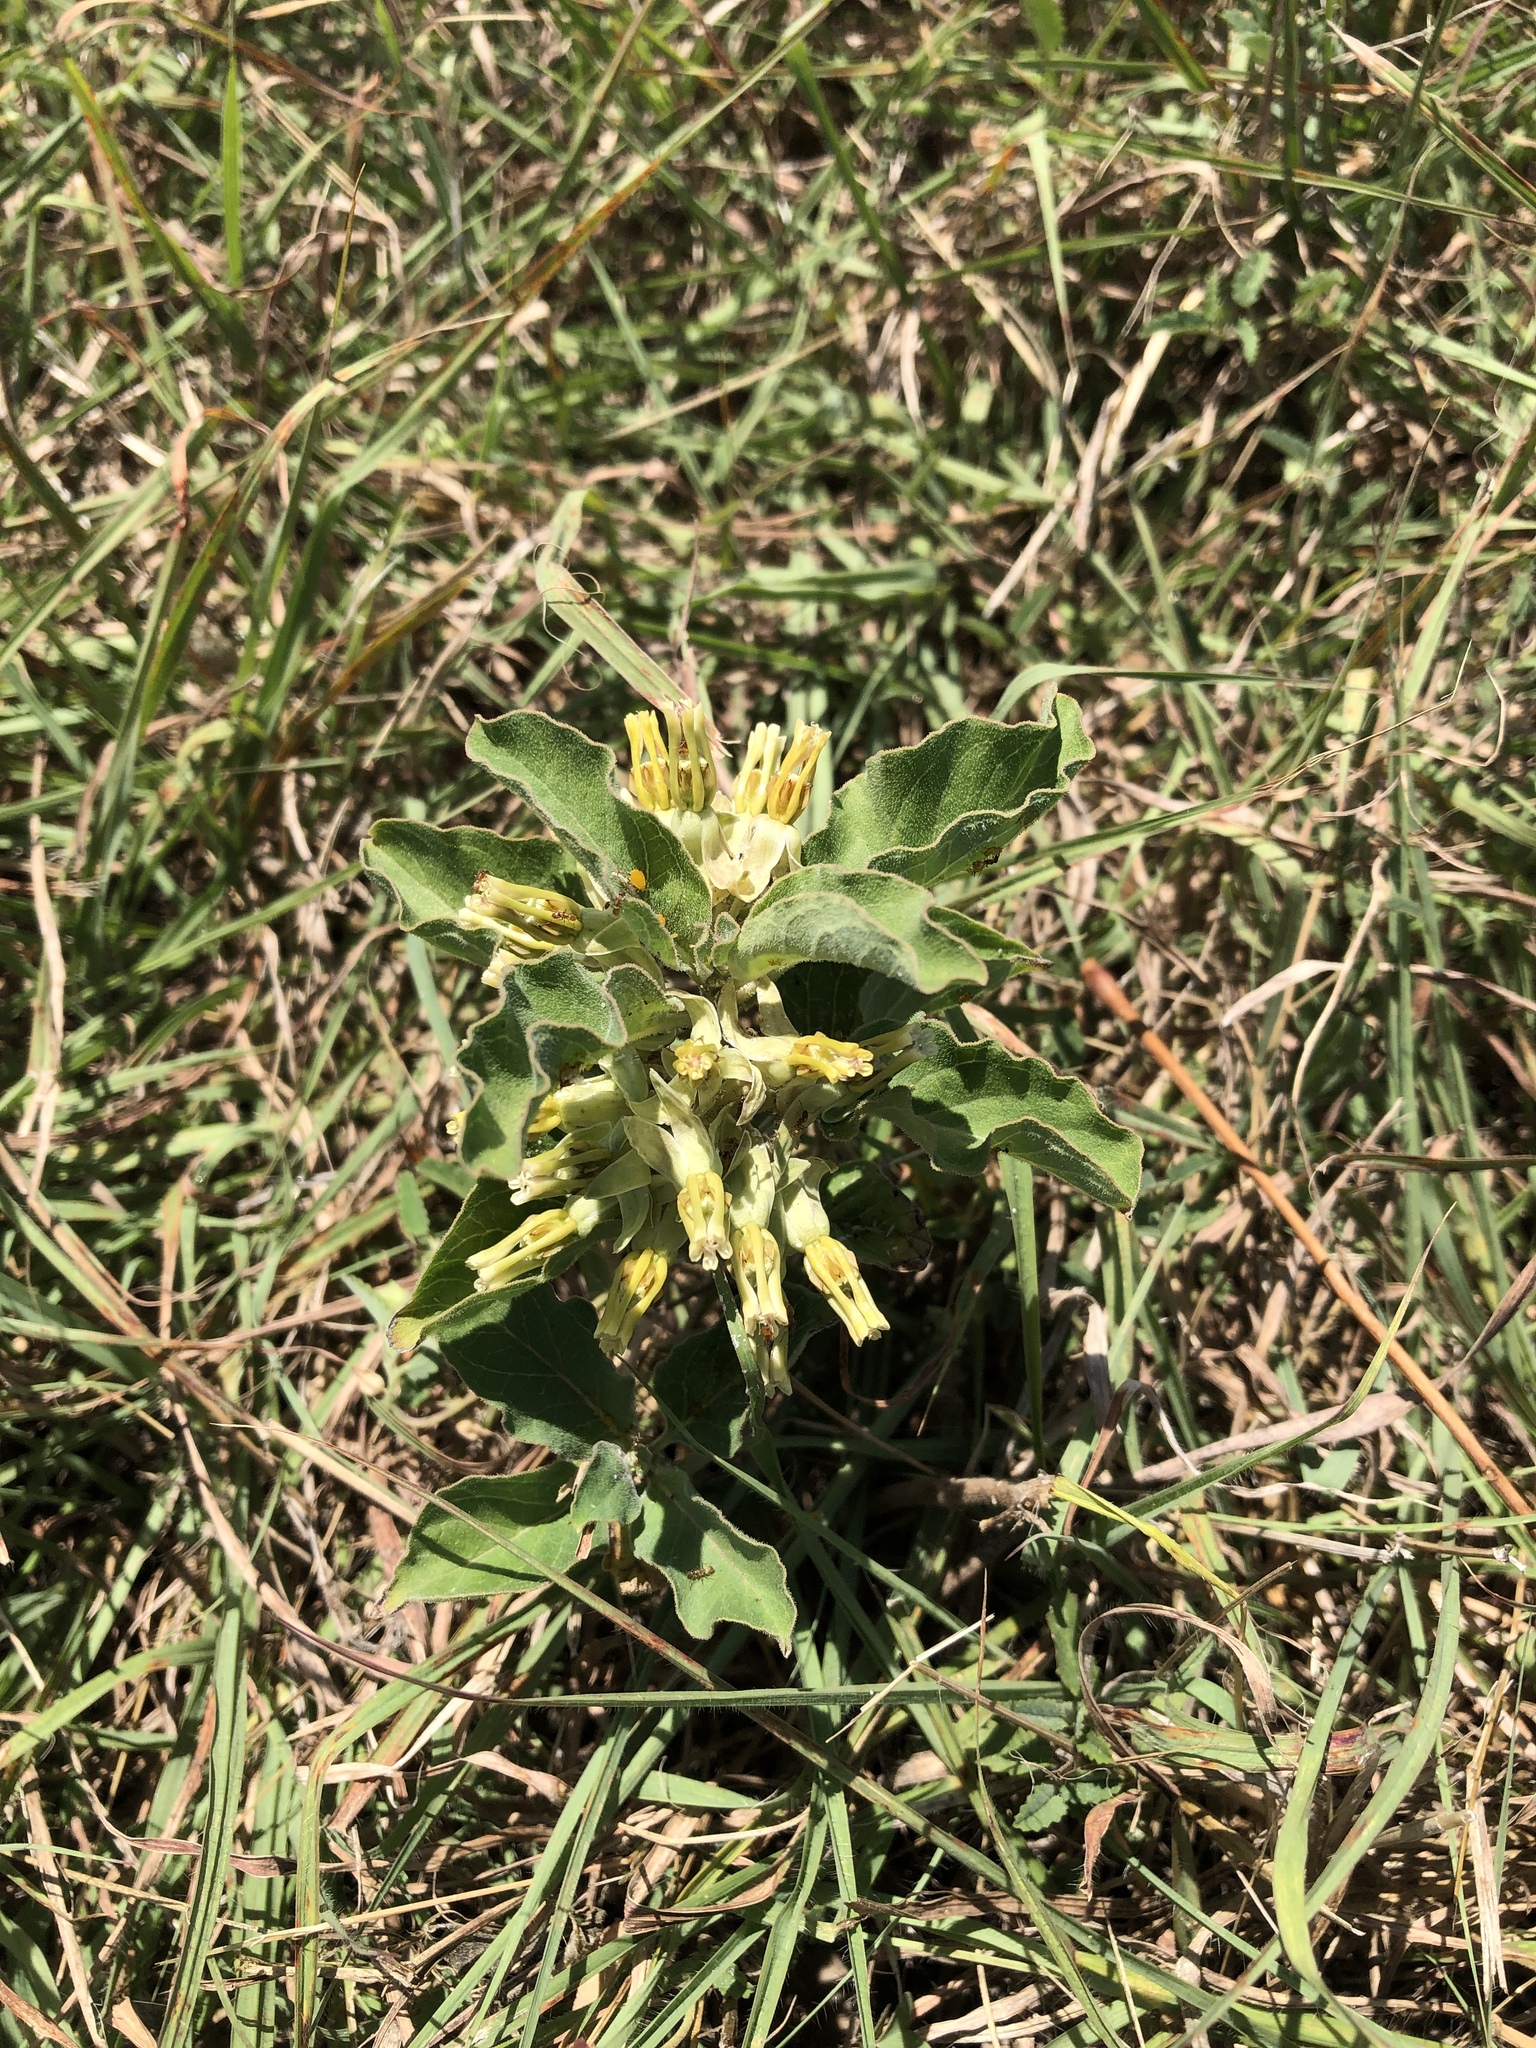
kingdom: Plantae
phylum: Tracheophyta
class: Magnoliopsida
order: Gentianales
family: Apocynaceae
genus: Asclepias
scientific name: Asclepias oenotheroides
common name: Zizotes milkweed
